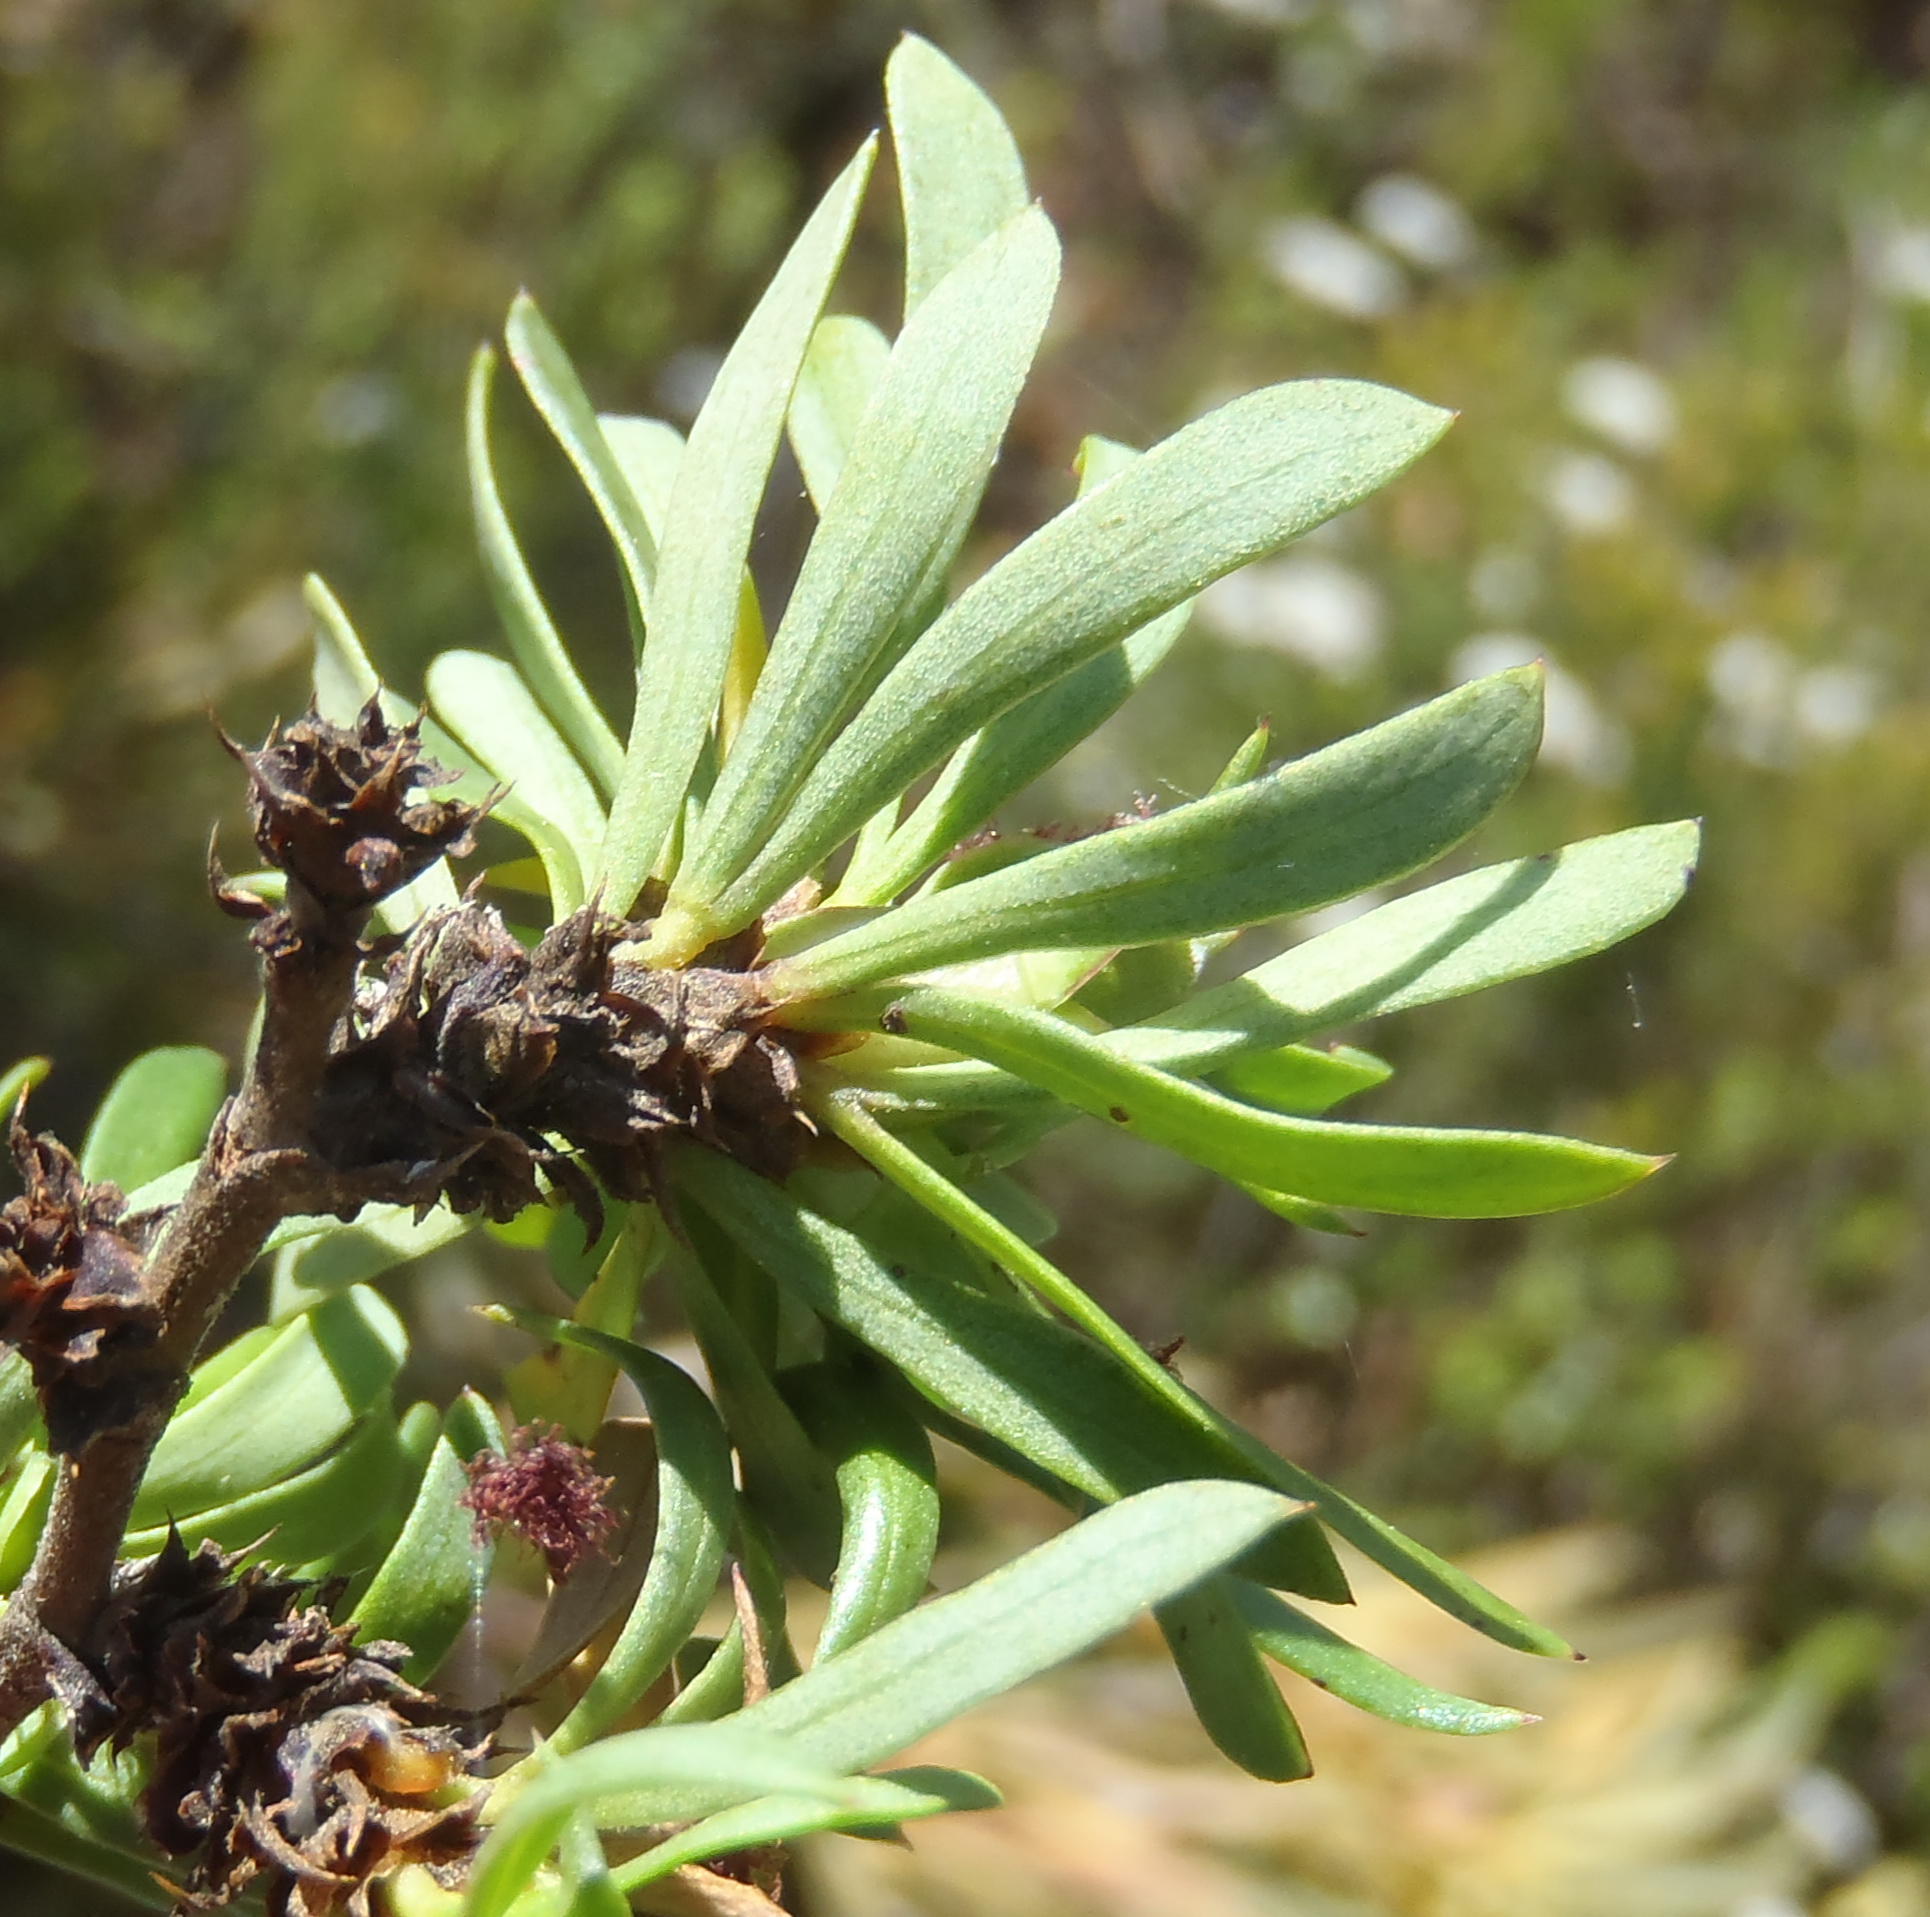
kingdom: Plantae
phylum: Tracheophyta
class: Magnoliopsida
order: Rosales
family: Rosaceae
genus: Cliffortia
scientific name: Cliffortia drepanoides
